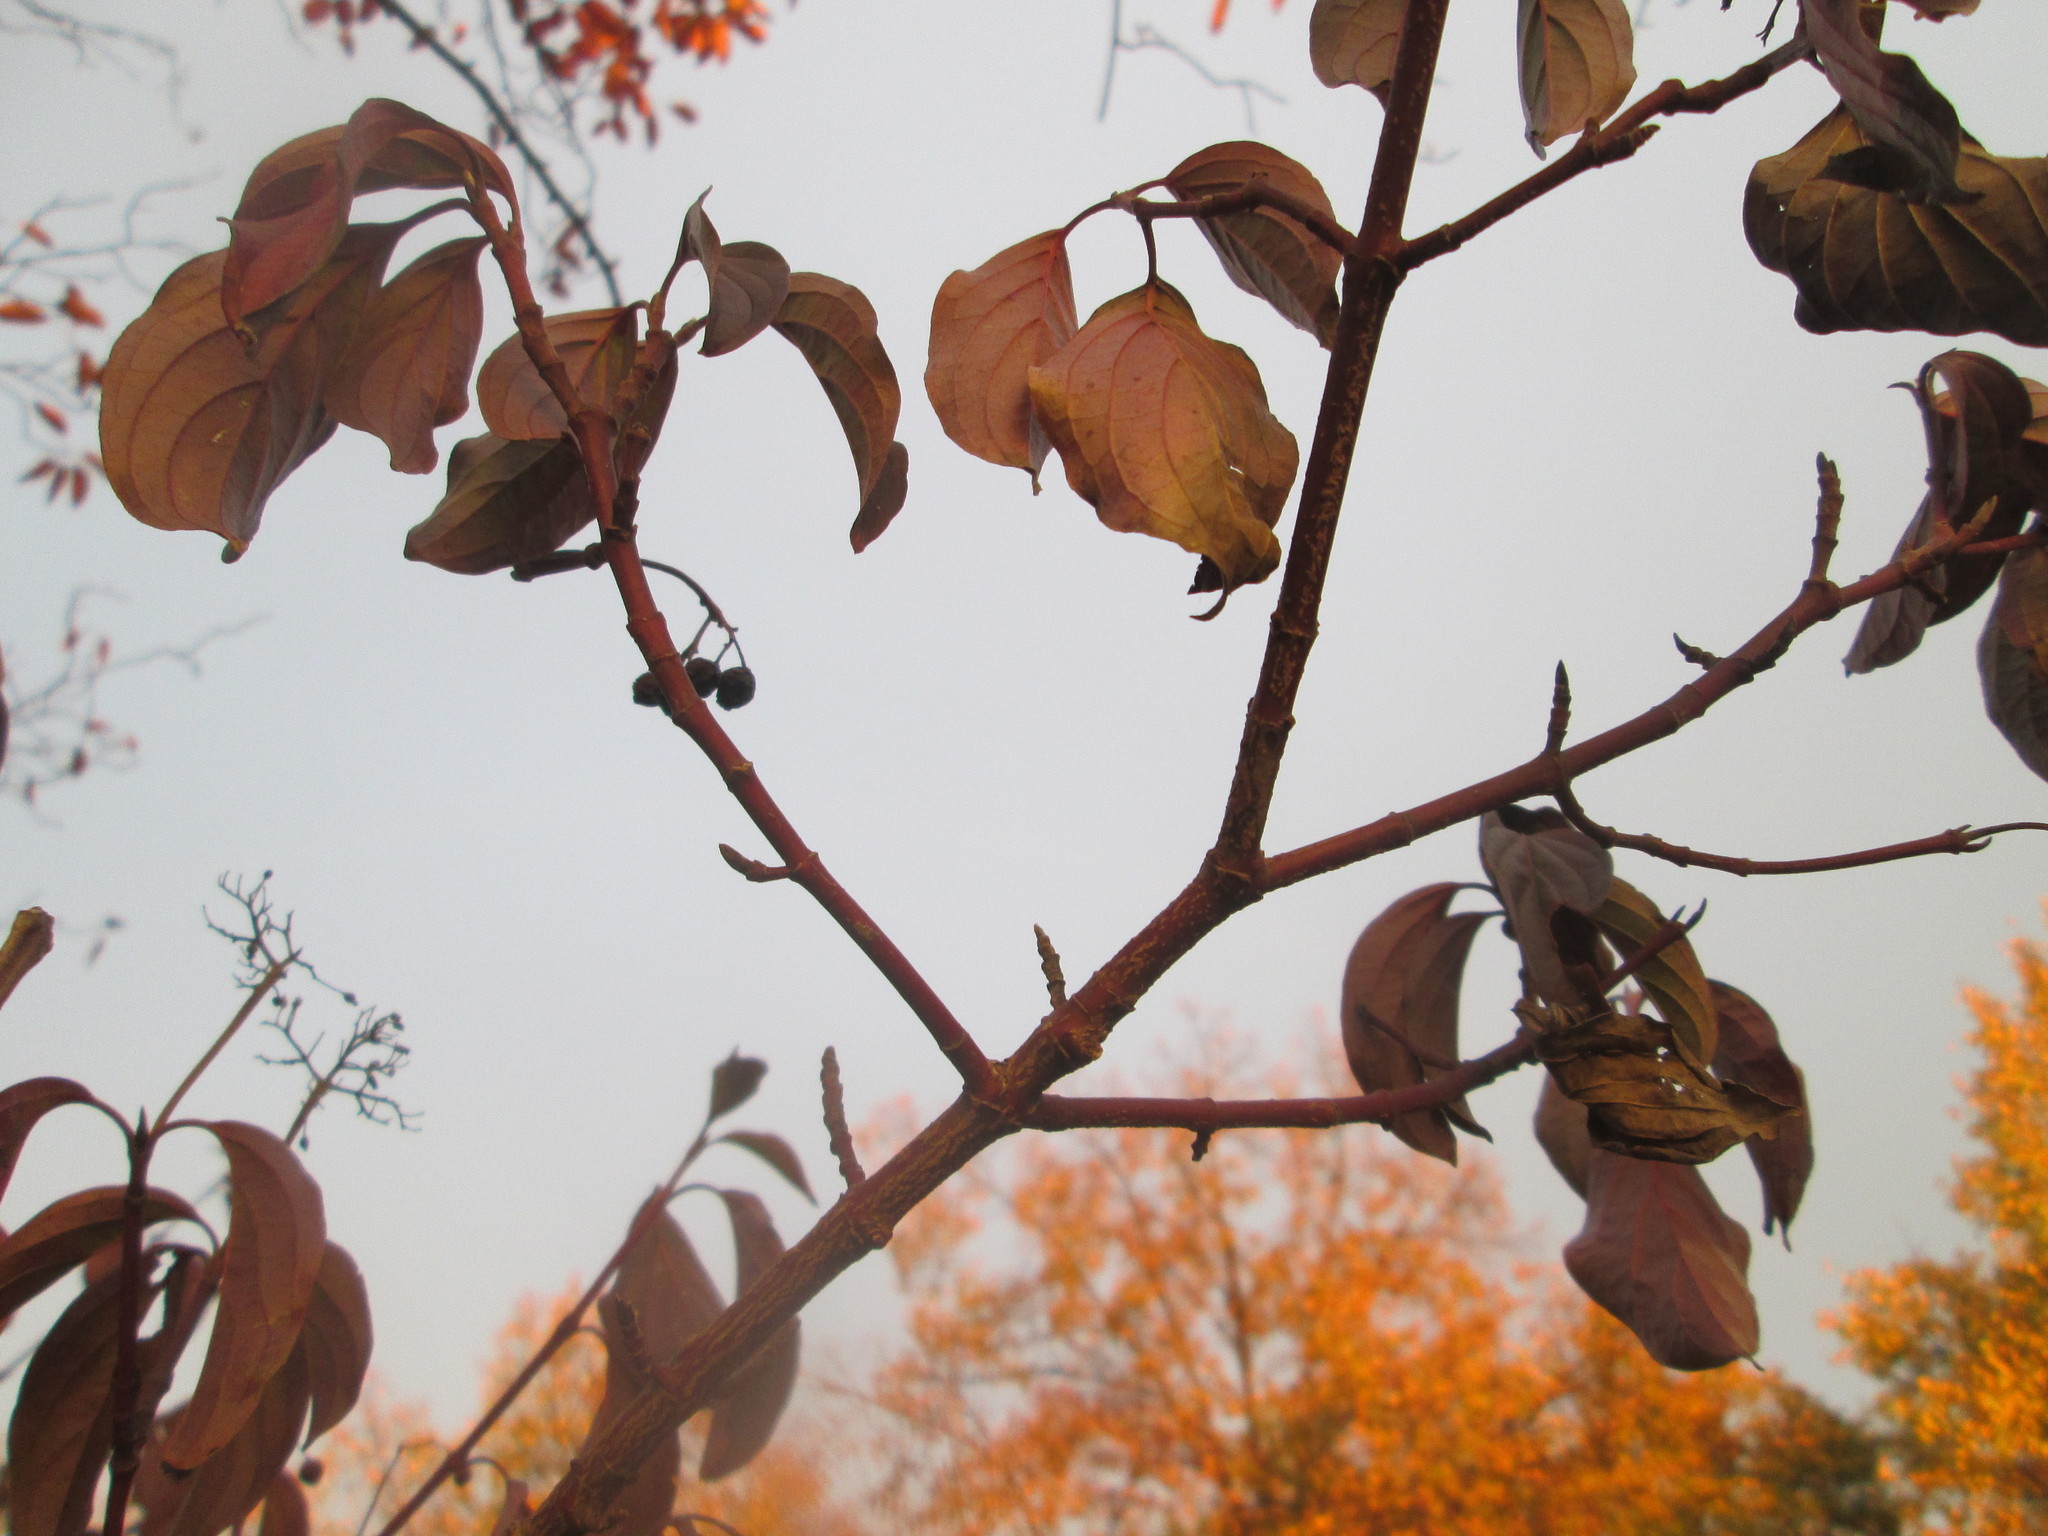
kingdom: Plantae
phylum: Tracheophyta
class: Magnoliopsida
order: Cornales
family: Cornaceae
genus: Cornus
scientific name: Cornus sanguinea
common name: Dogwood
